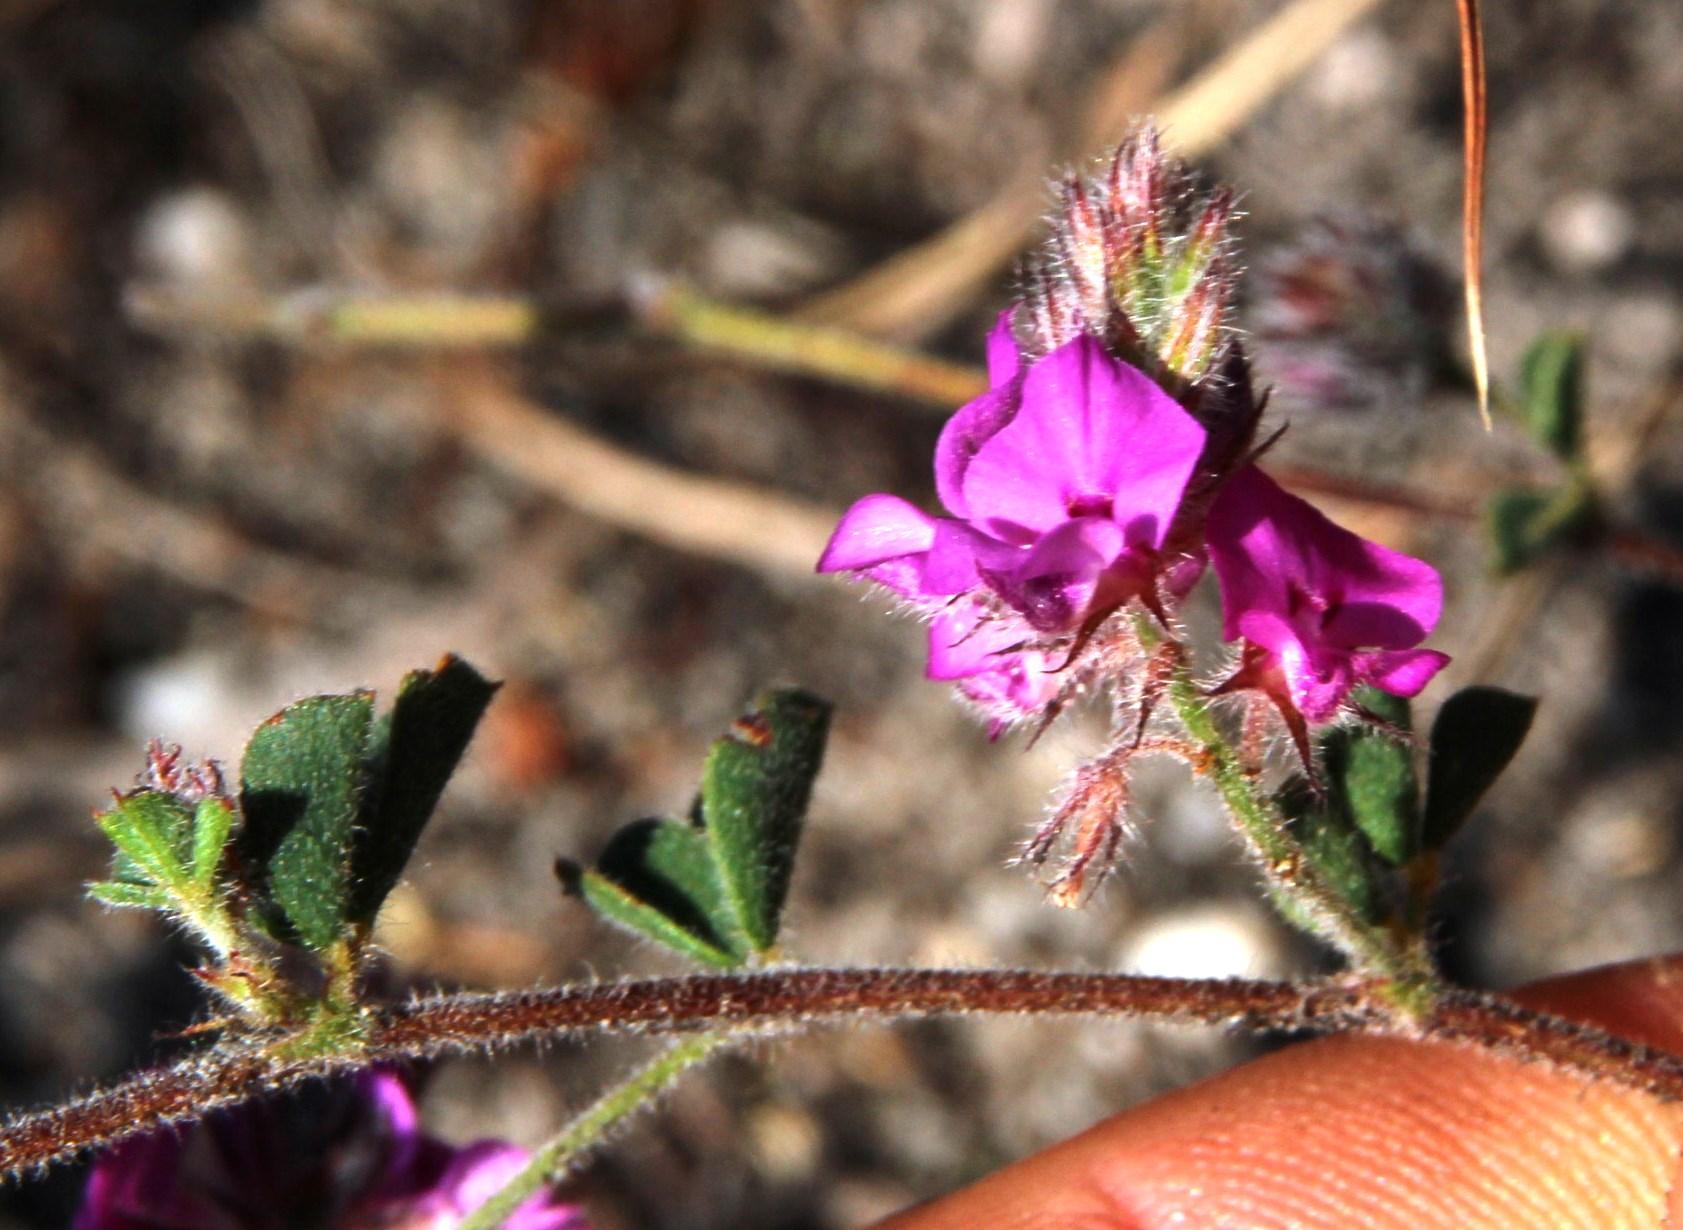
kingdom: Plantae
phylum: Tracheophyta
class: Magnoliopsida
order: Fabales
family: Fabaceae
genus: Indigofera
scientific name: Indigofera
